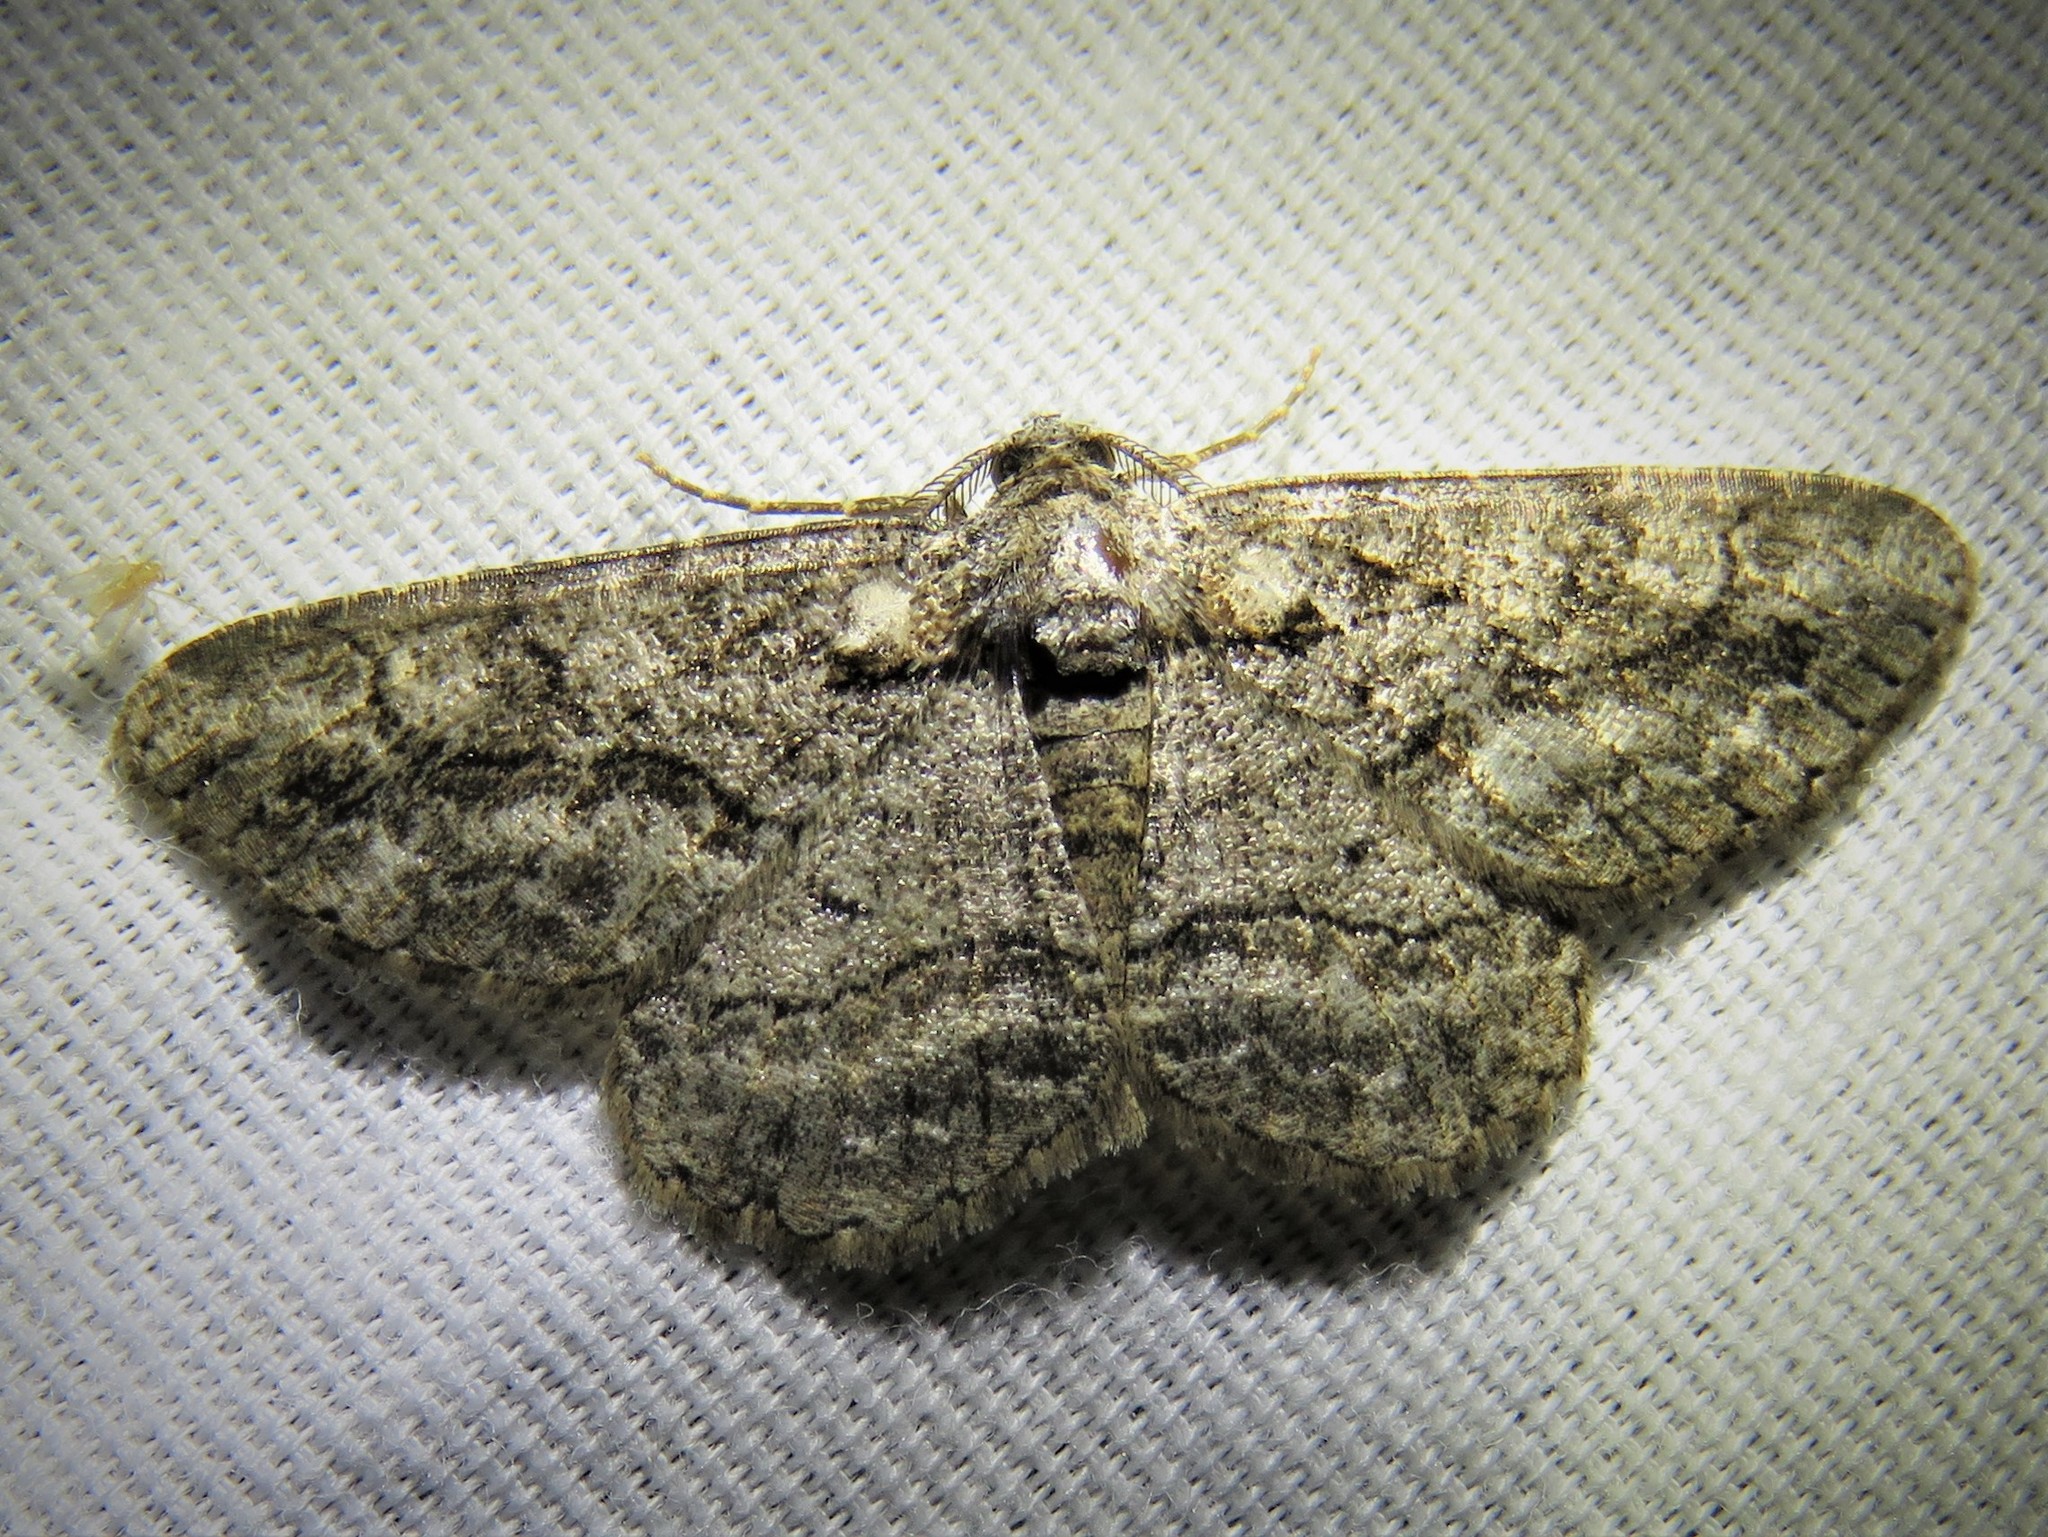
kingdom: Animalia
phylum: Arthropoda
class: Insecta
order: Lepidoptera
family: Geometridae
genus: Anavitrinella
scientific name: Anavitrinella pampinaria
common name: Common gray
